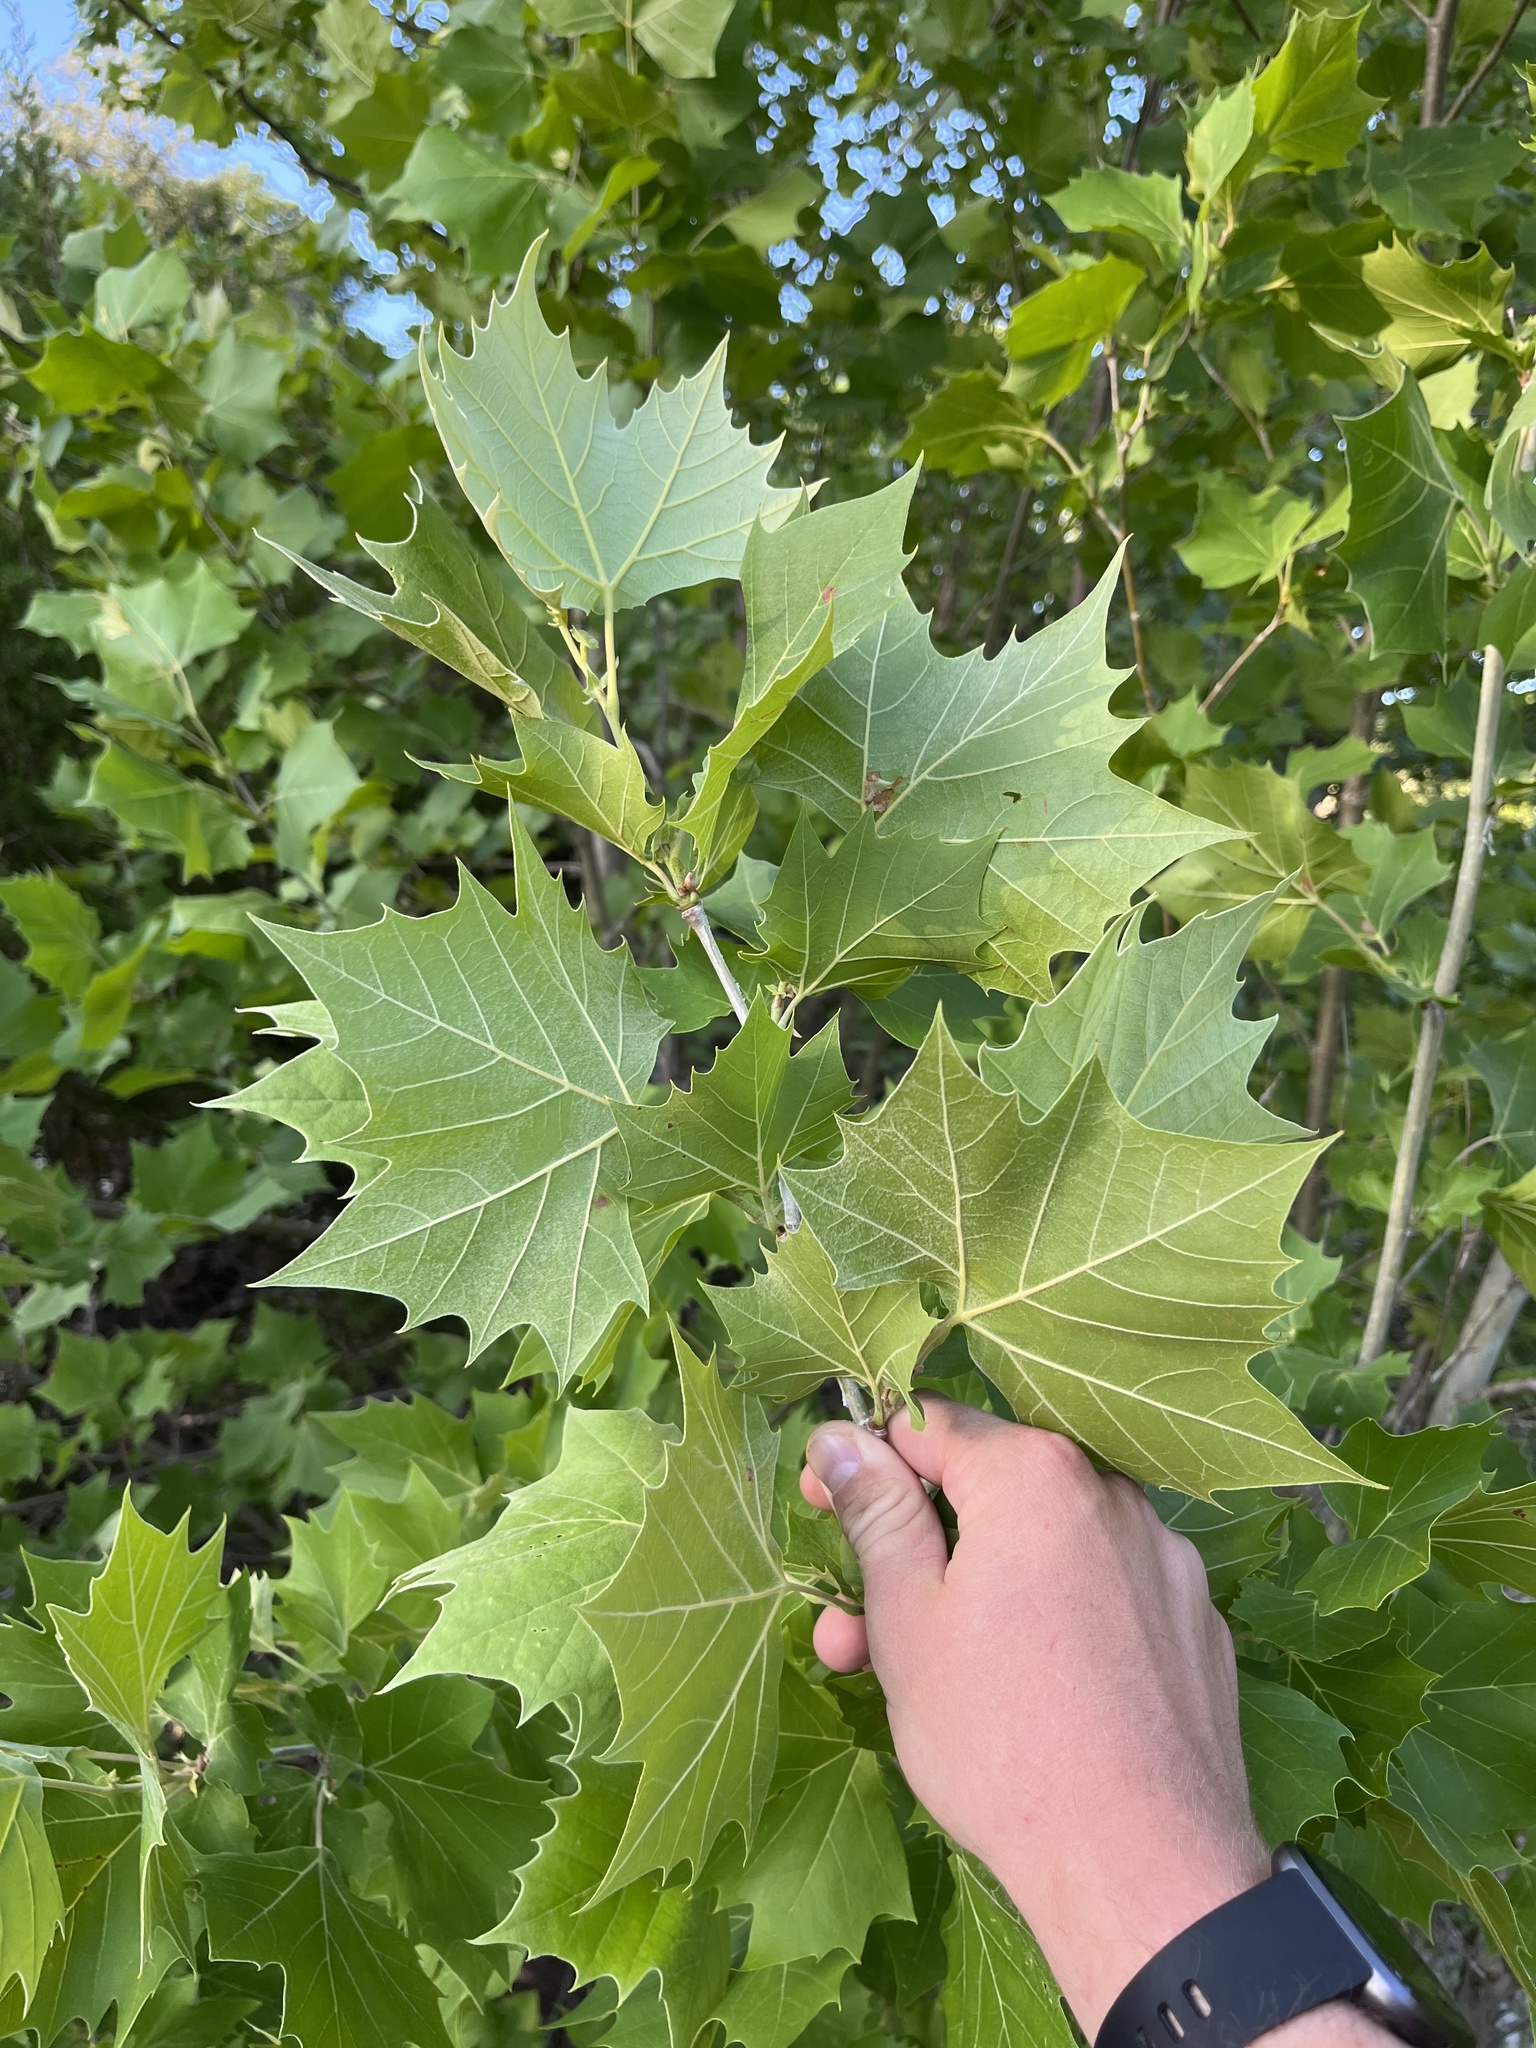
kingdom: Plantae
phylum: Tracheophyta
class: Magnoliopsida
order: Proteales
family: Platanaceae
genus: Platanus
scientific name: Platanus occidentalis
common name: American sycamore
